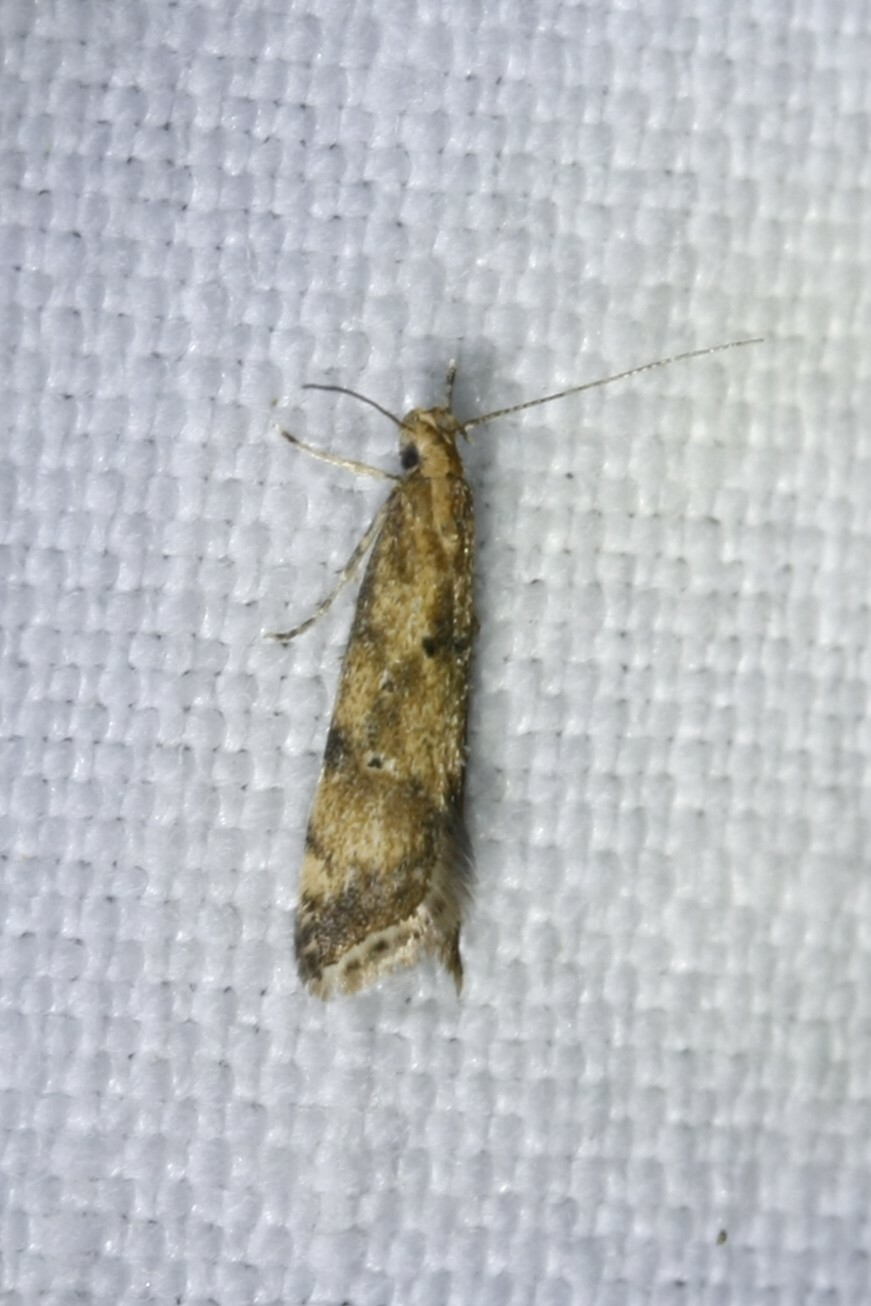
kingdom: Animalia
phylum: Arthropoda
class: Insecta
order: Lepidoptera
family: Gelechiidae
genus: Brachmia
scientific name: Brachmia blandella
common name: Gorse crest
